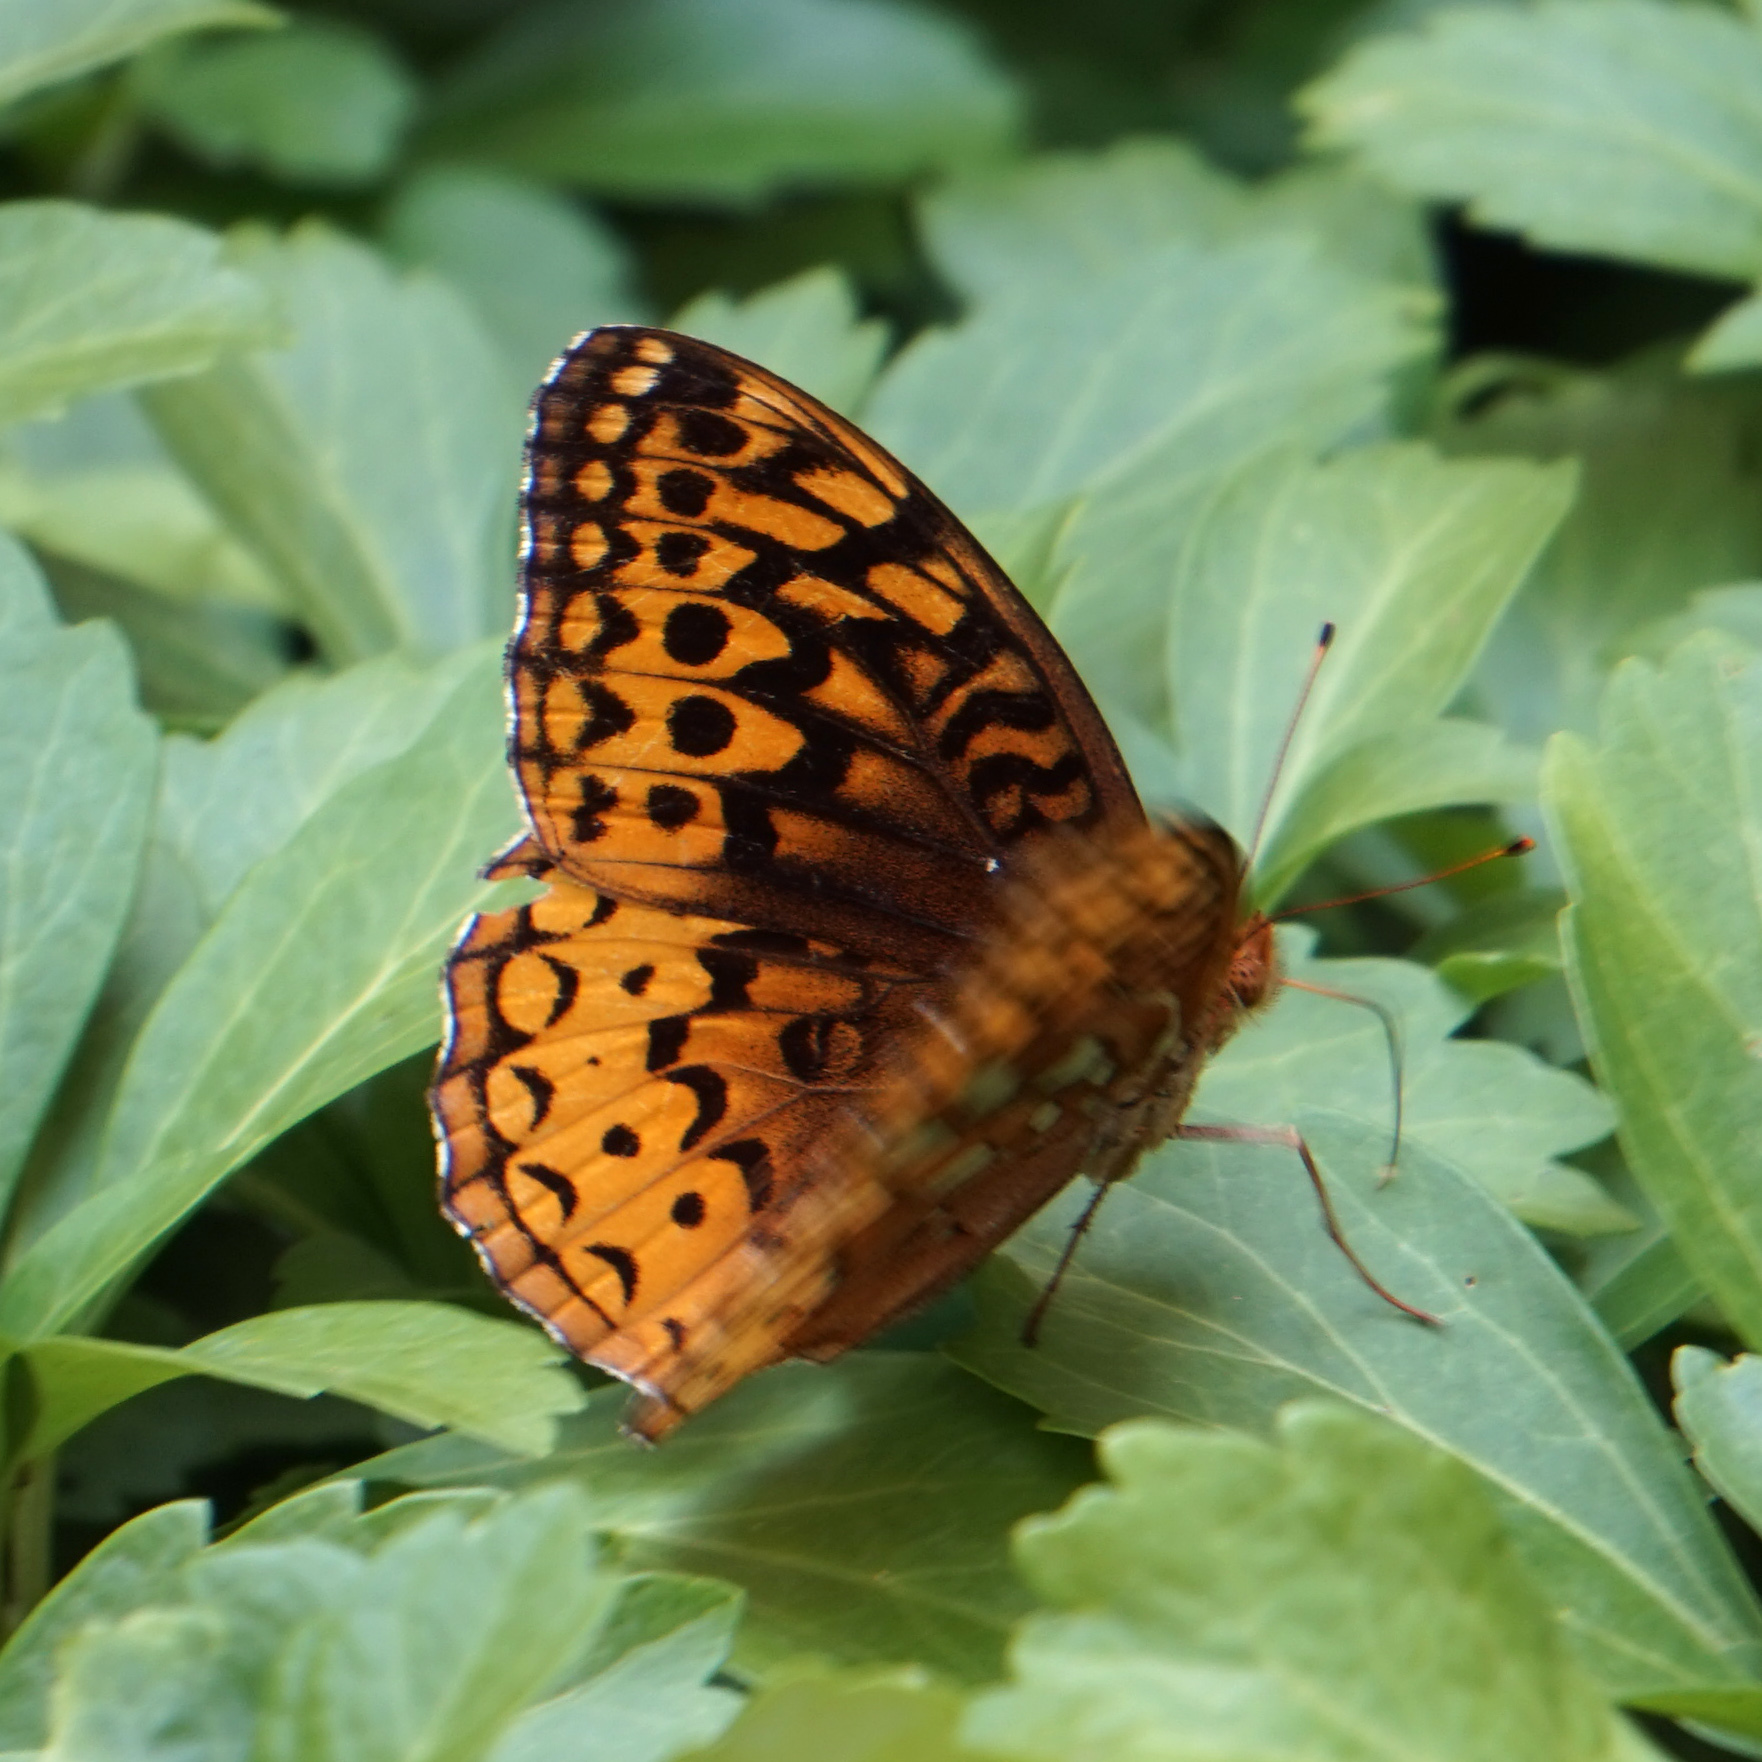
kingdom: Animalia
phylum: Arthropoda
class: Insecta
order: Lepidoptera
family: Nymphalidae
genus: Speyeria
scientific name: Speyeria cybele
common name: Great spangled fritillary
